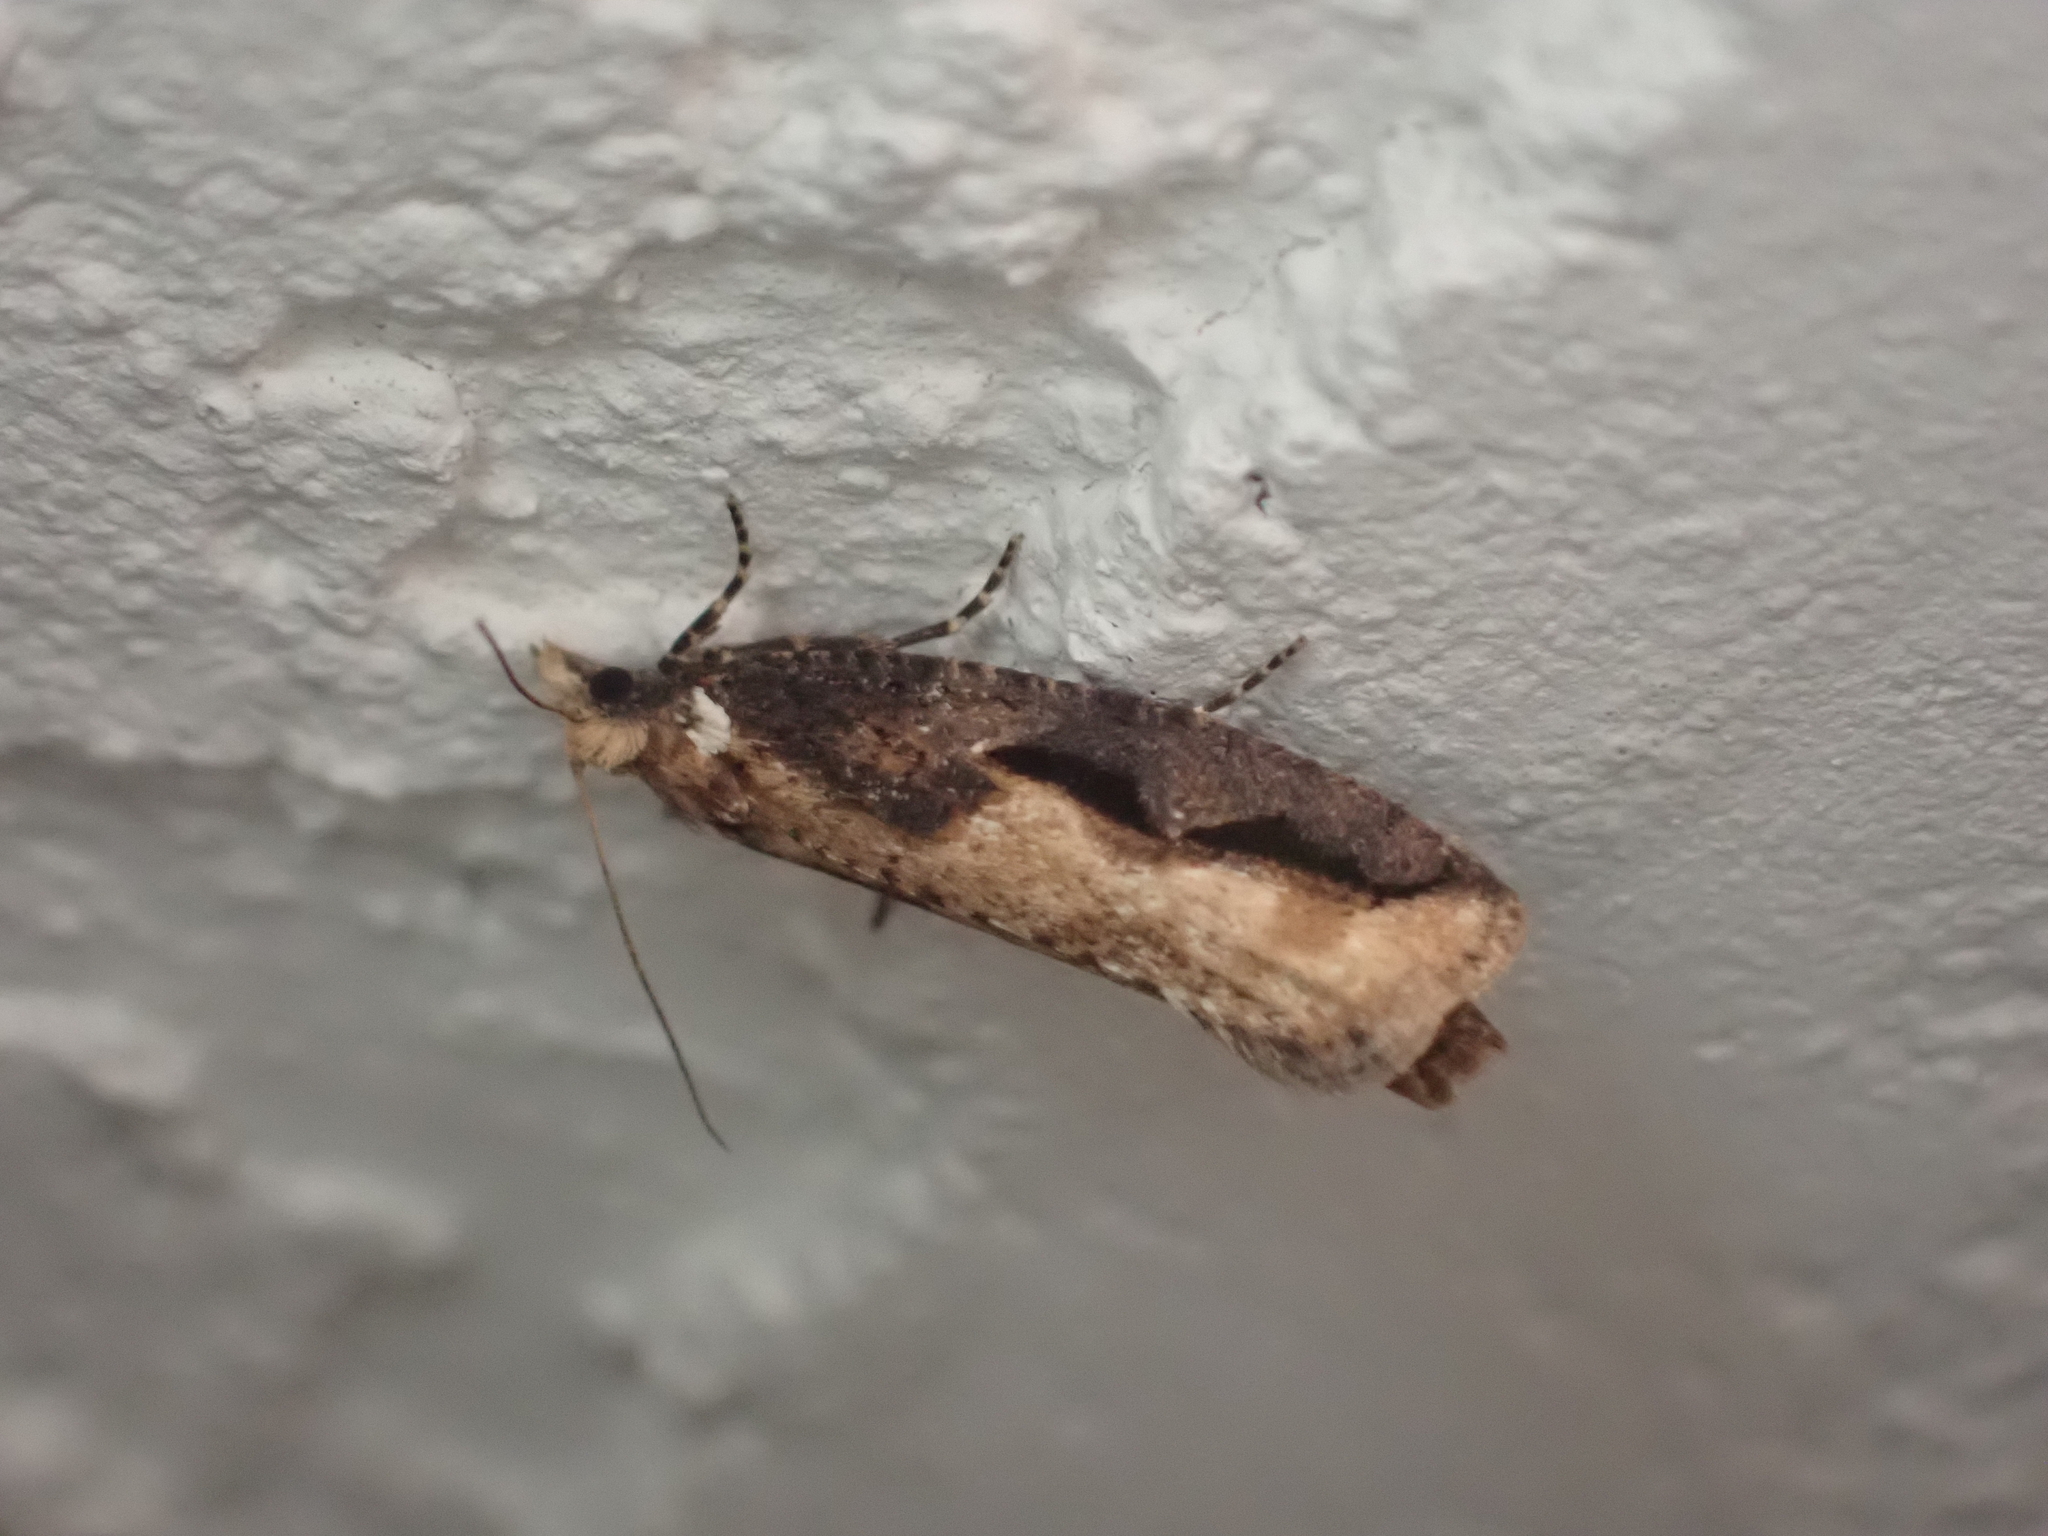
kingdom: Animalia
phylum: Arthropoda
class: Insecta
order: Lepidoptera
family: Tortricidae
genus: Epinotia
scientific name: Epinotia kasloana
